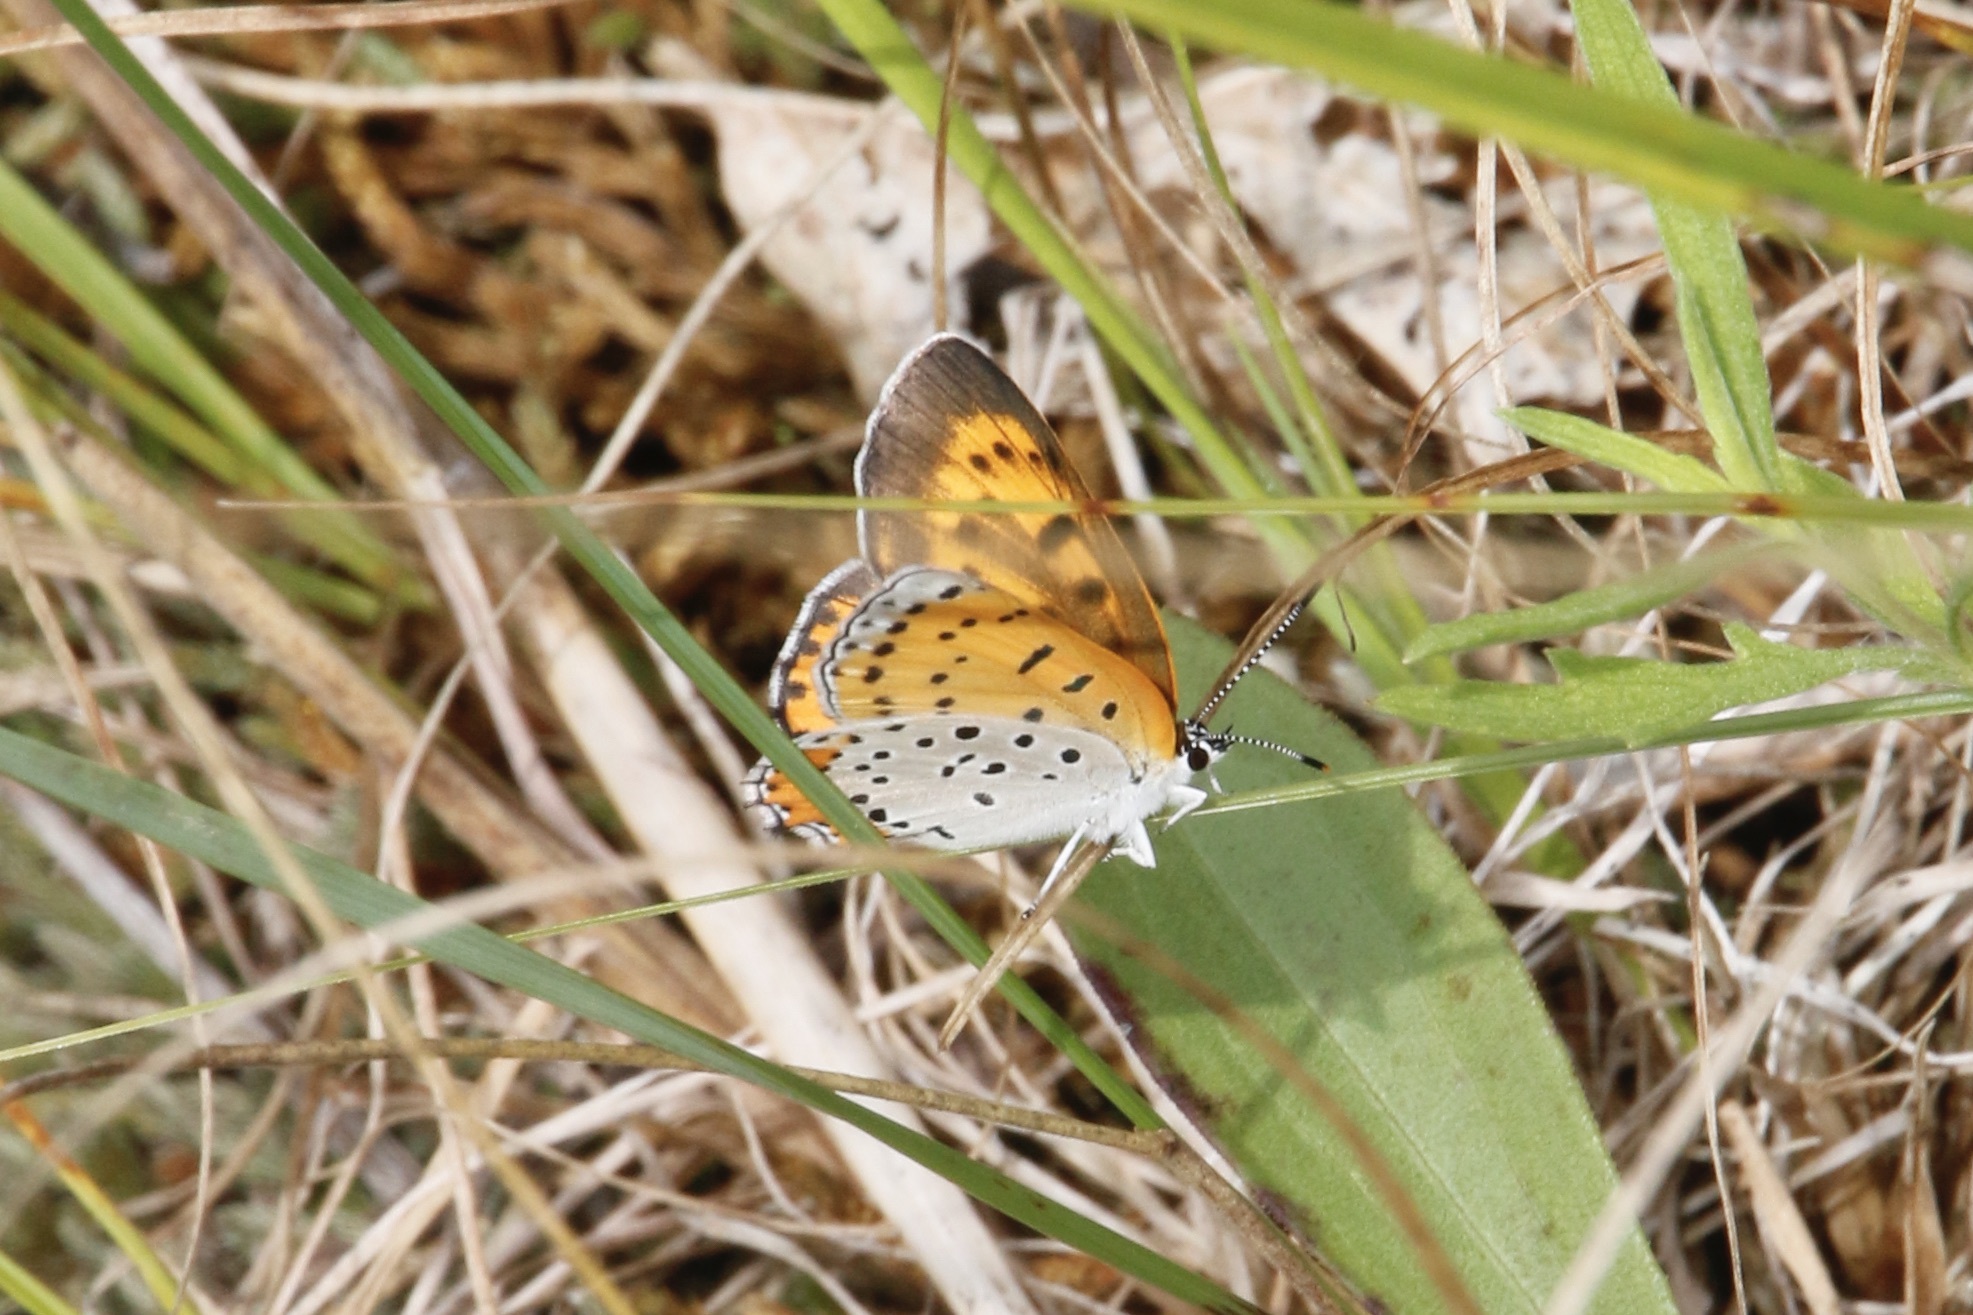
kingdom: Animalia
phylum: Arthropoda
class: Insecta
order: Lepidoptera
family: Lycaenidae
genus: Tharsalea
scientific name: Tharsalea hyllus
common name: Bronze copper
